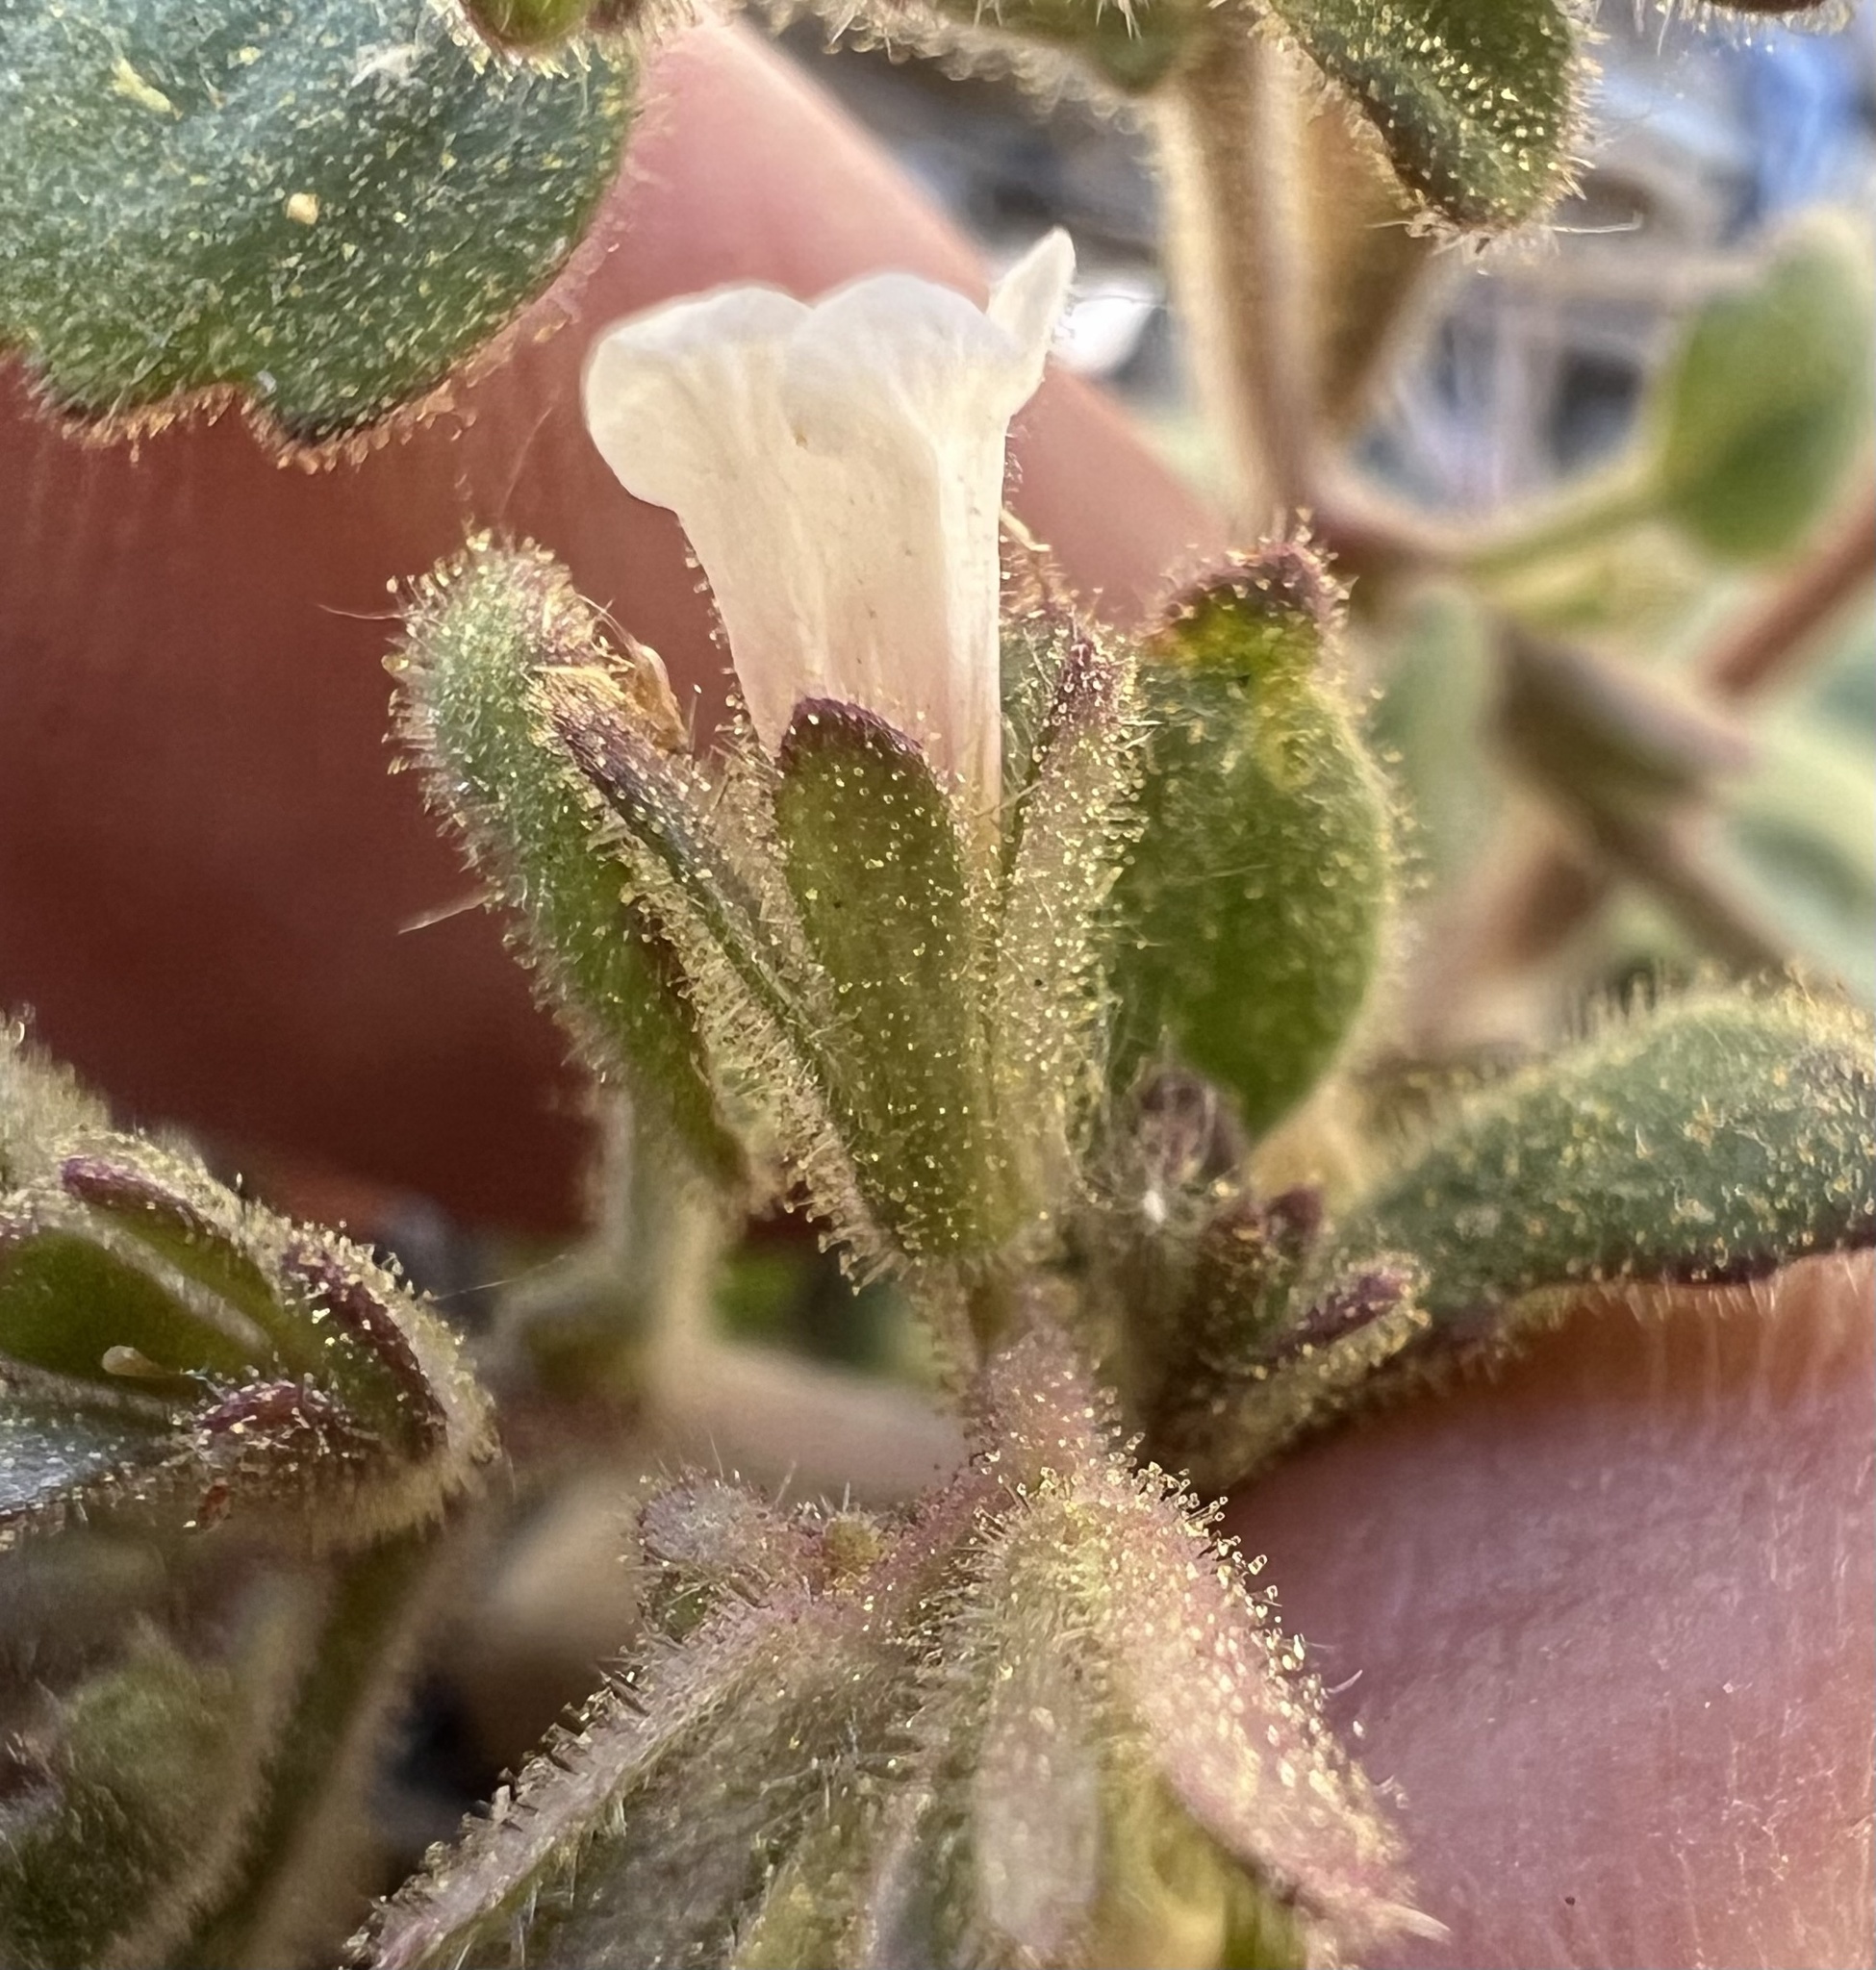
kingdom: Plantae
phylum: Tracheophyta
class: Magnoliopsida
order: Boraginales
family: Hydrophyllaceae
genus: Phacelia
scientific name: Phacelia peirsoniana
